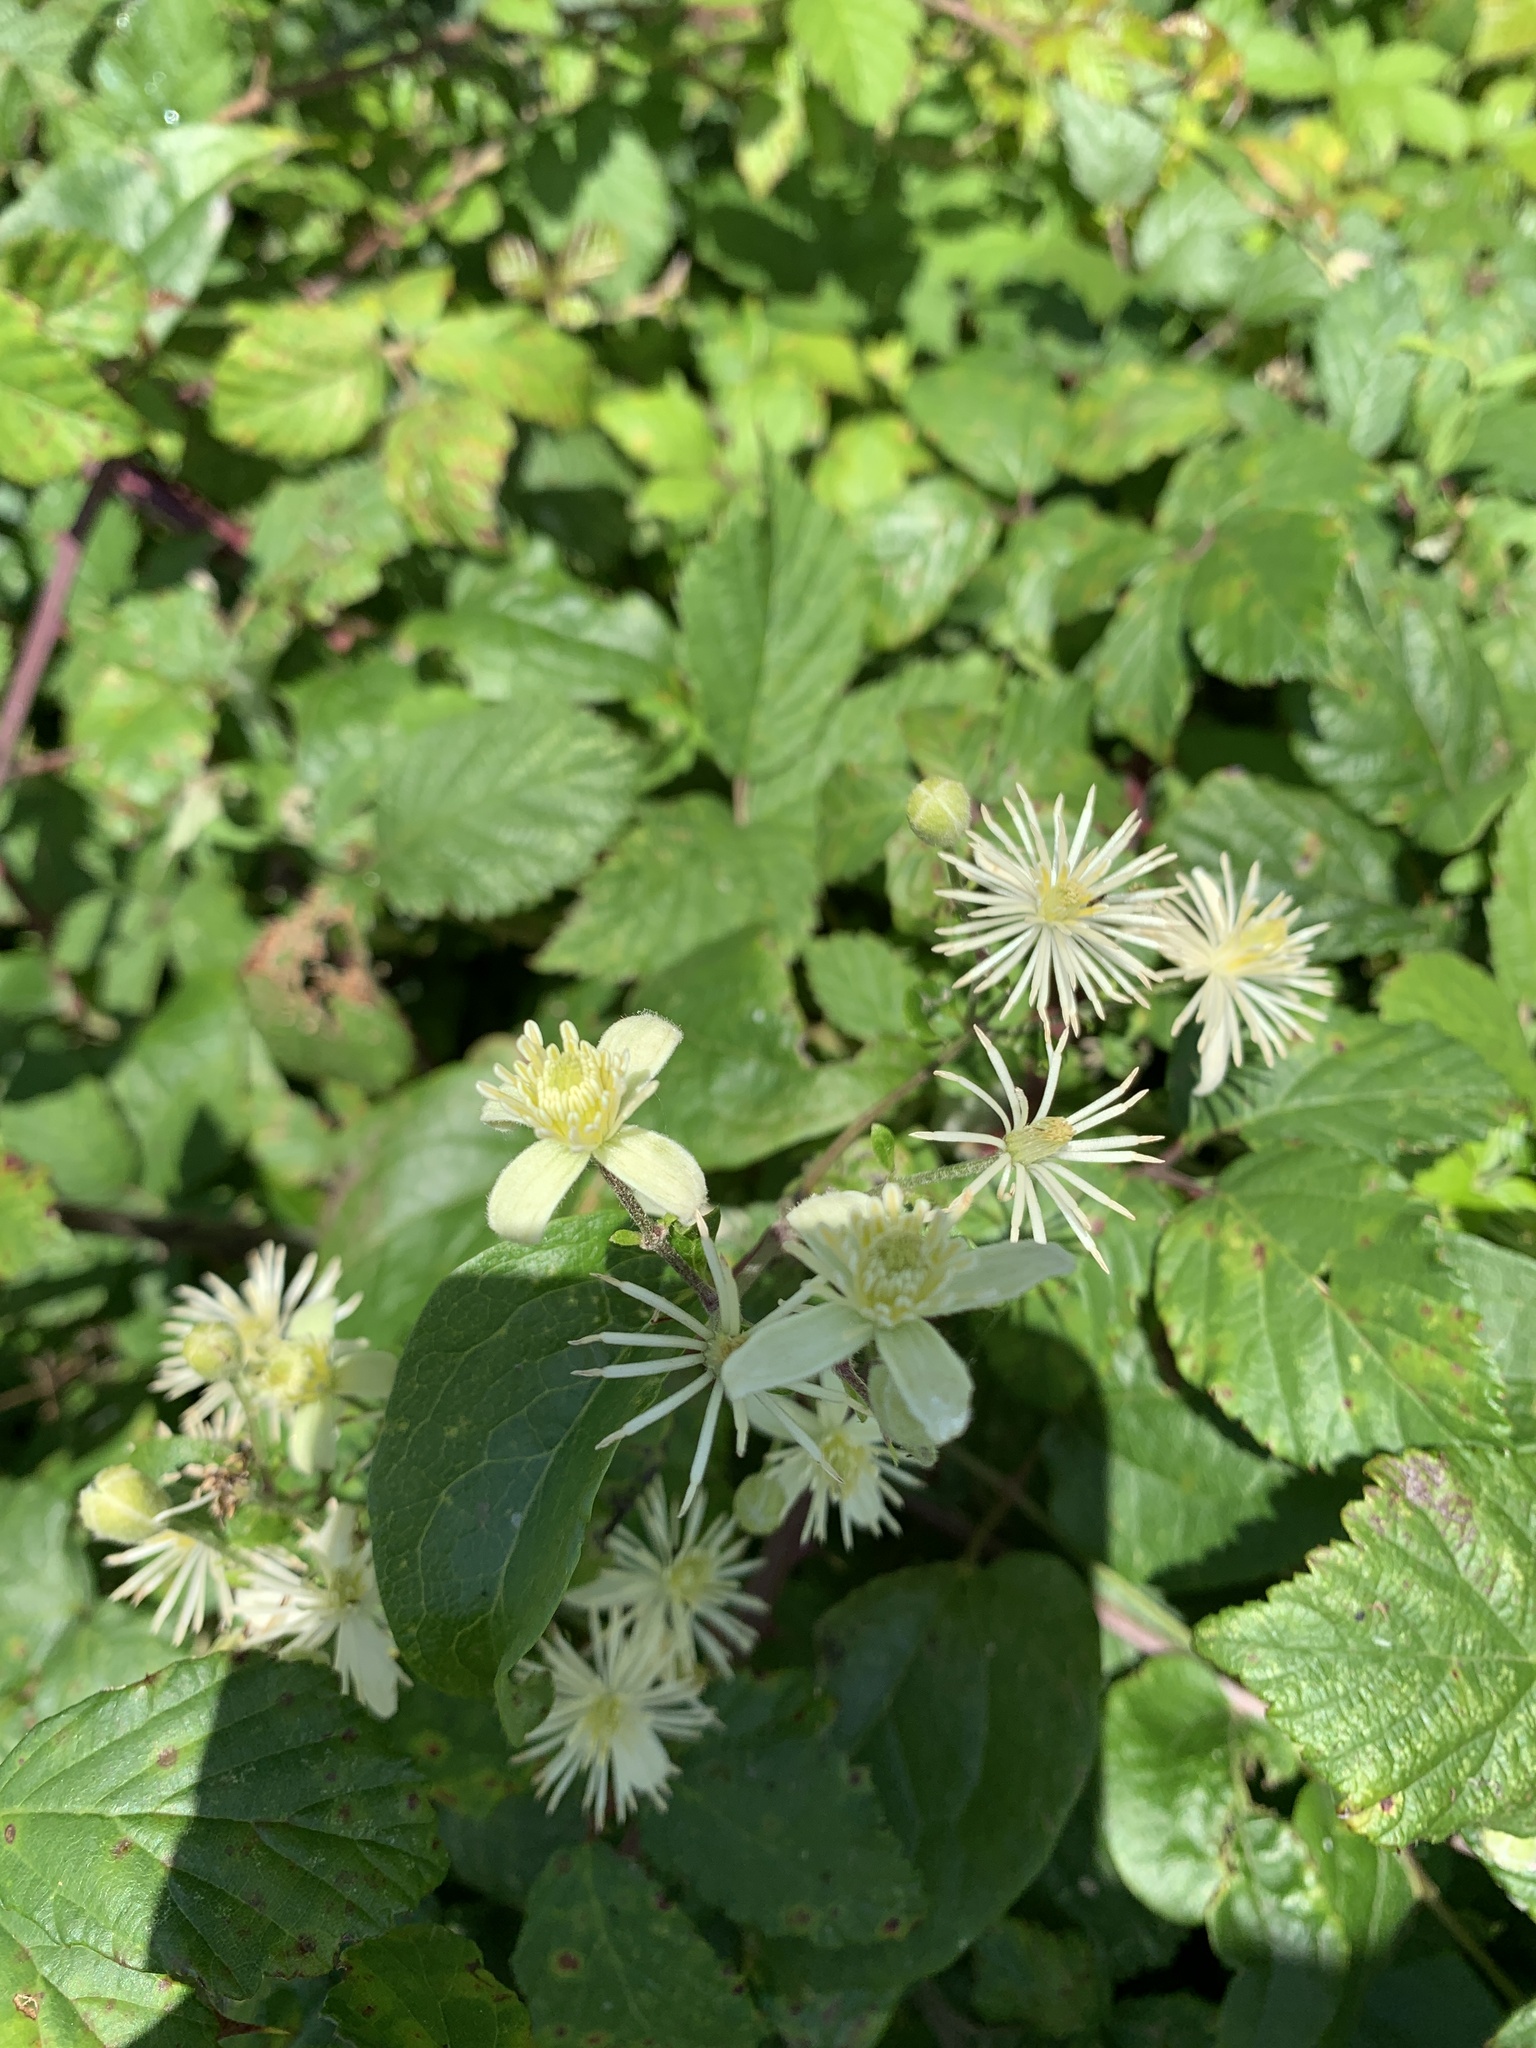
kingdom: Plantae
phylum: Tracheophyta
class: Magnoliopsida
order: Ranunculales
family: Ranunculaceae
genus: Clematis
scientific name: Clematis vitalba
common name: Evergreen clematis
